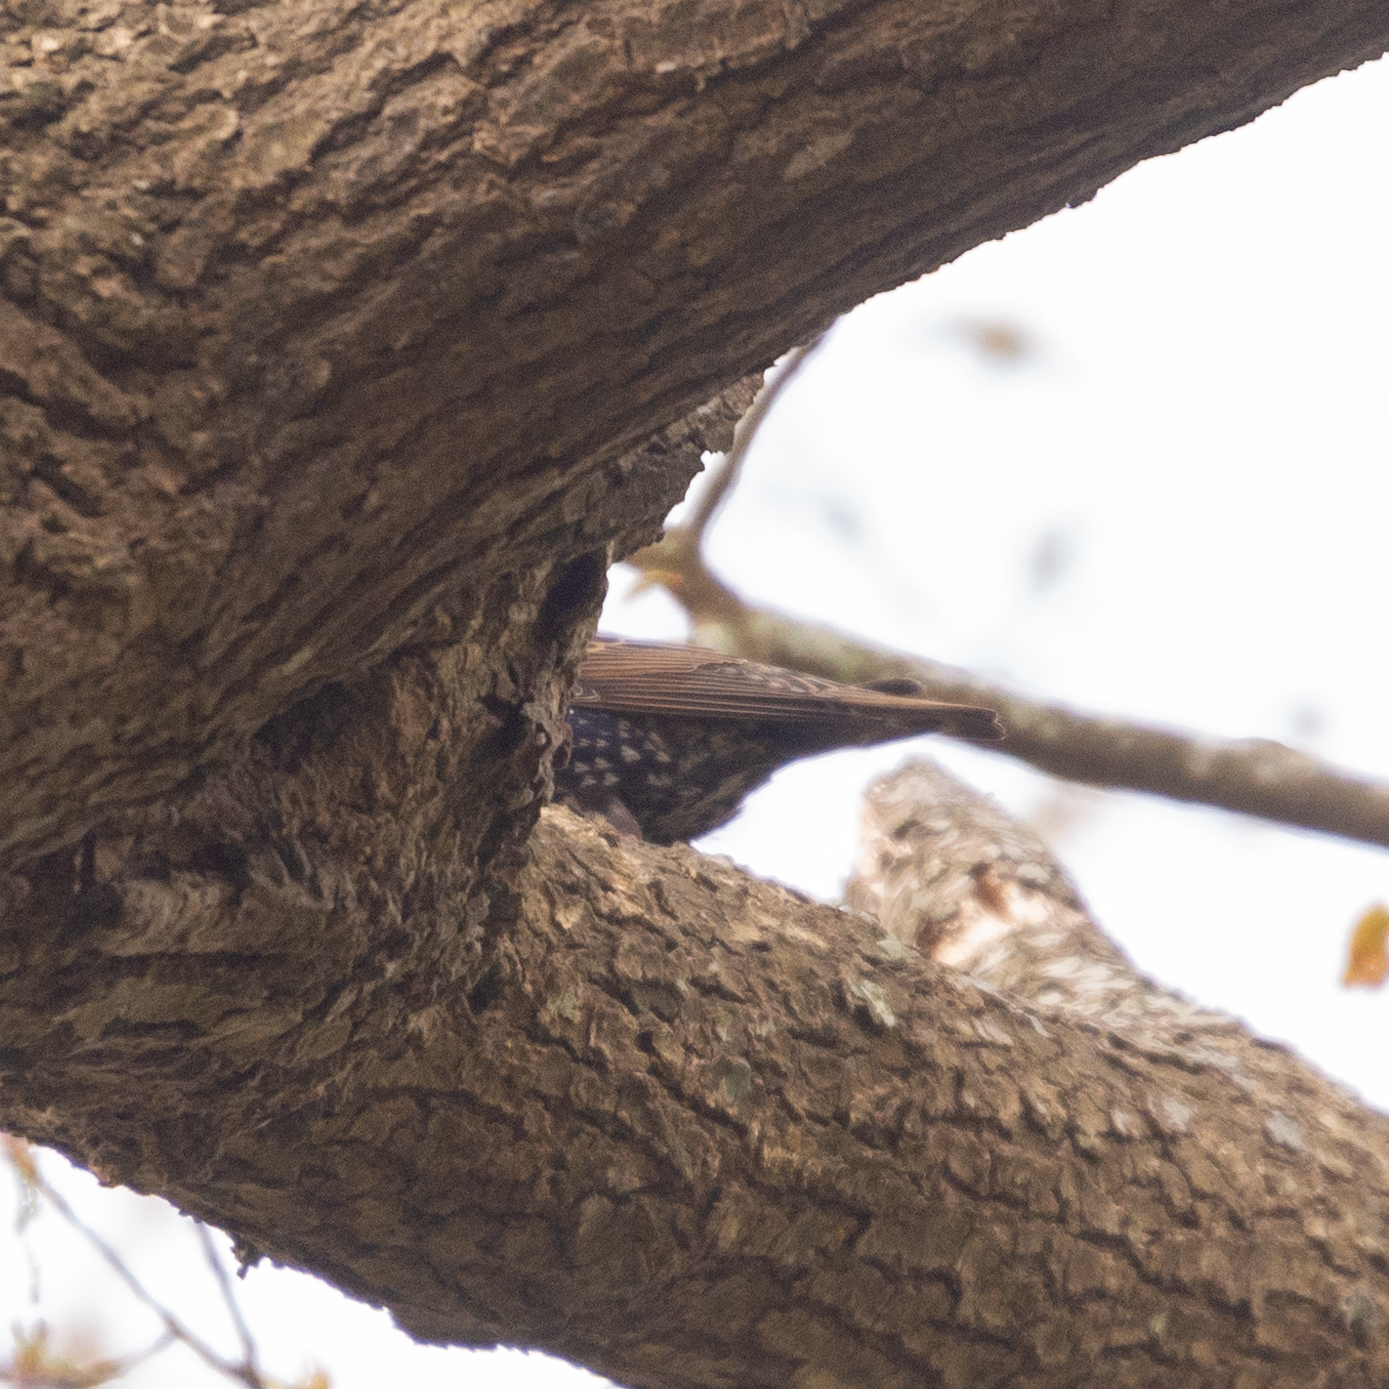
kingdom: Animalia
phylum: Chordata
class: Aves
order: Passeriformes
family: Sturnidae
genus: Sturnus
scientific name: Sturnus vulgaris
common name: Common starling
